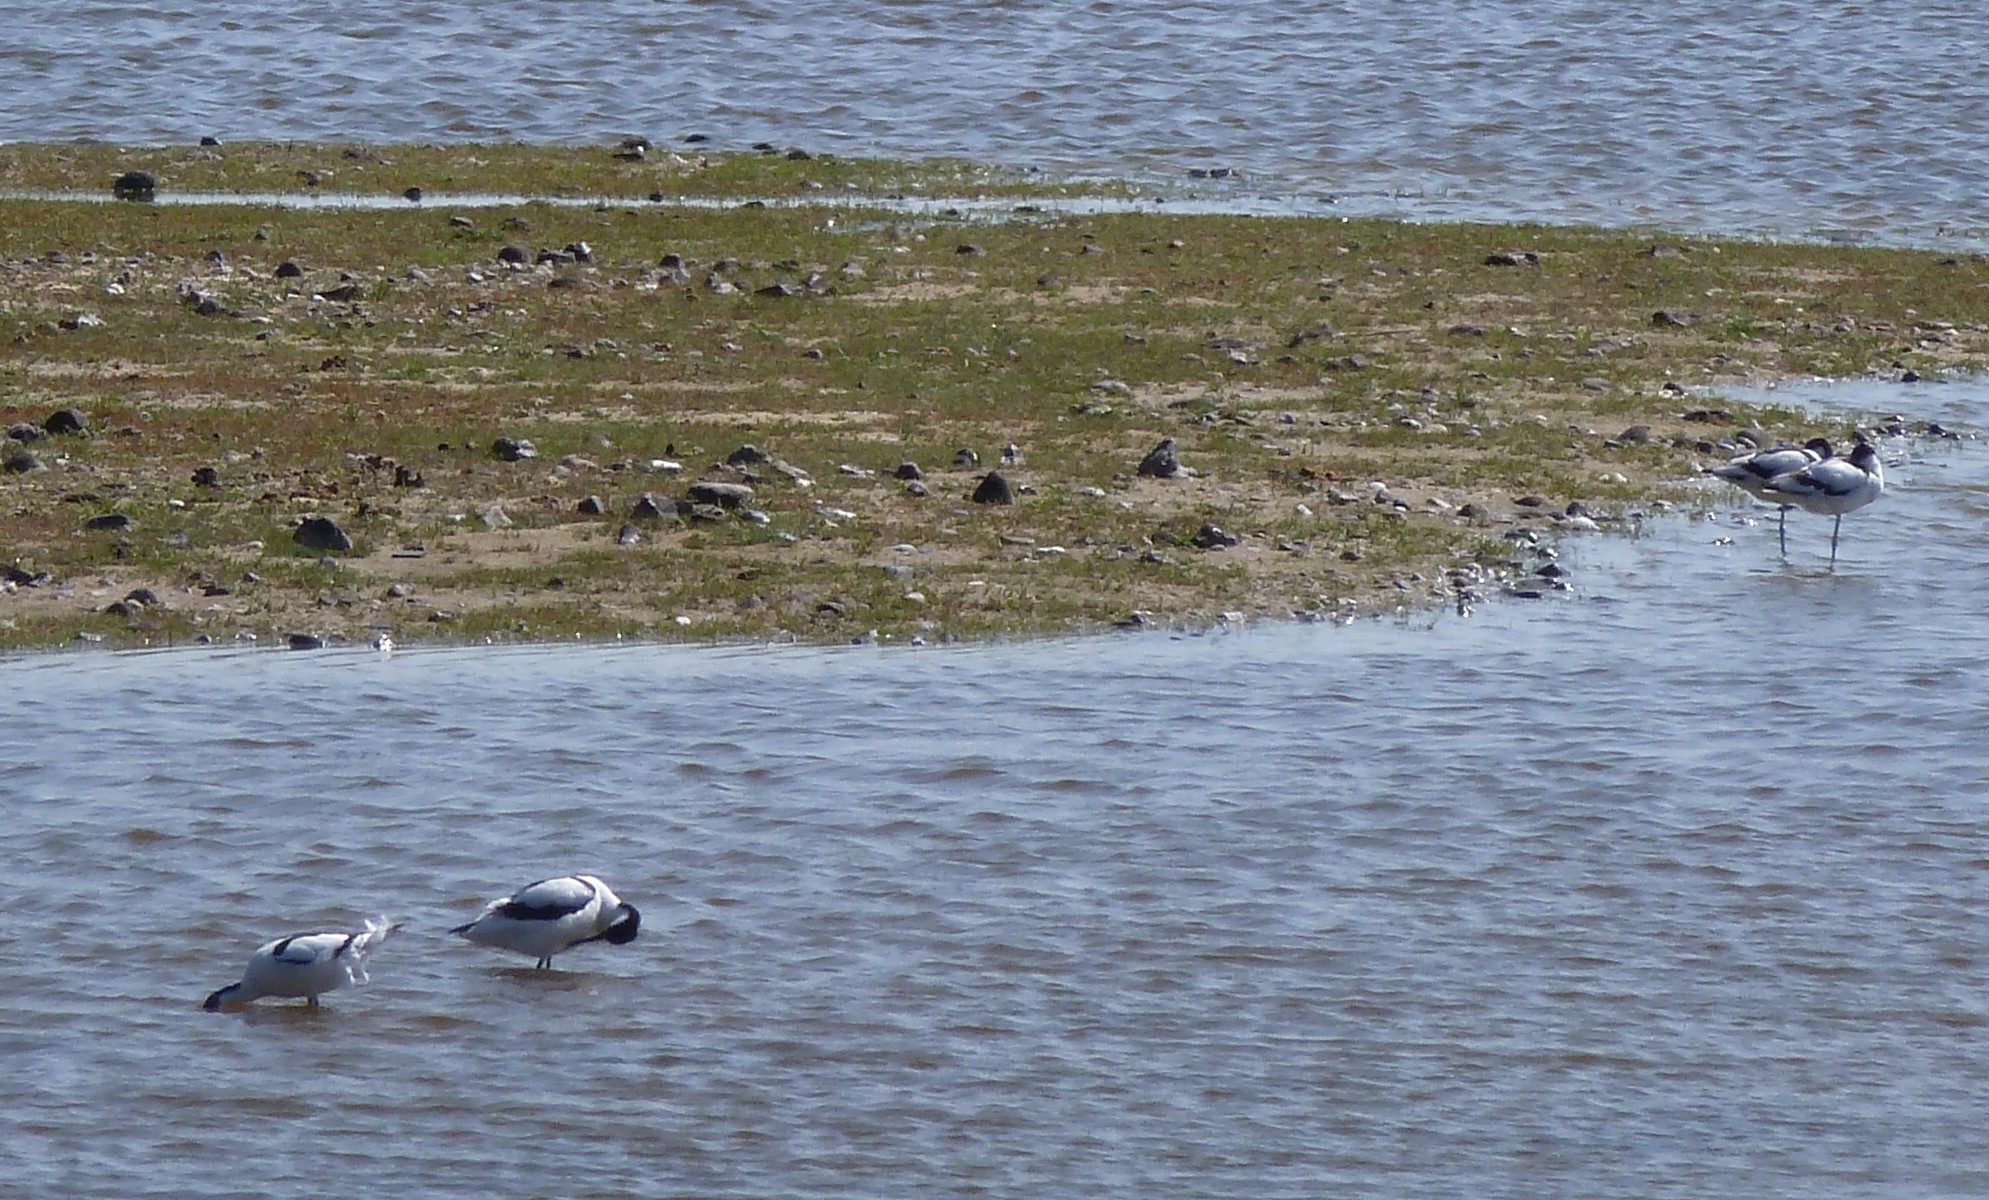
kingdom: Animalia
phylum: Chordata
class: Aves
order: Charadriiformes
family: Recurvirostridae
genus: Recurvirostra
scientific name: Recurvirostra avosetta
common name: Pied avocet
